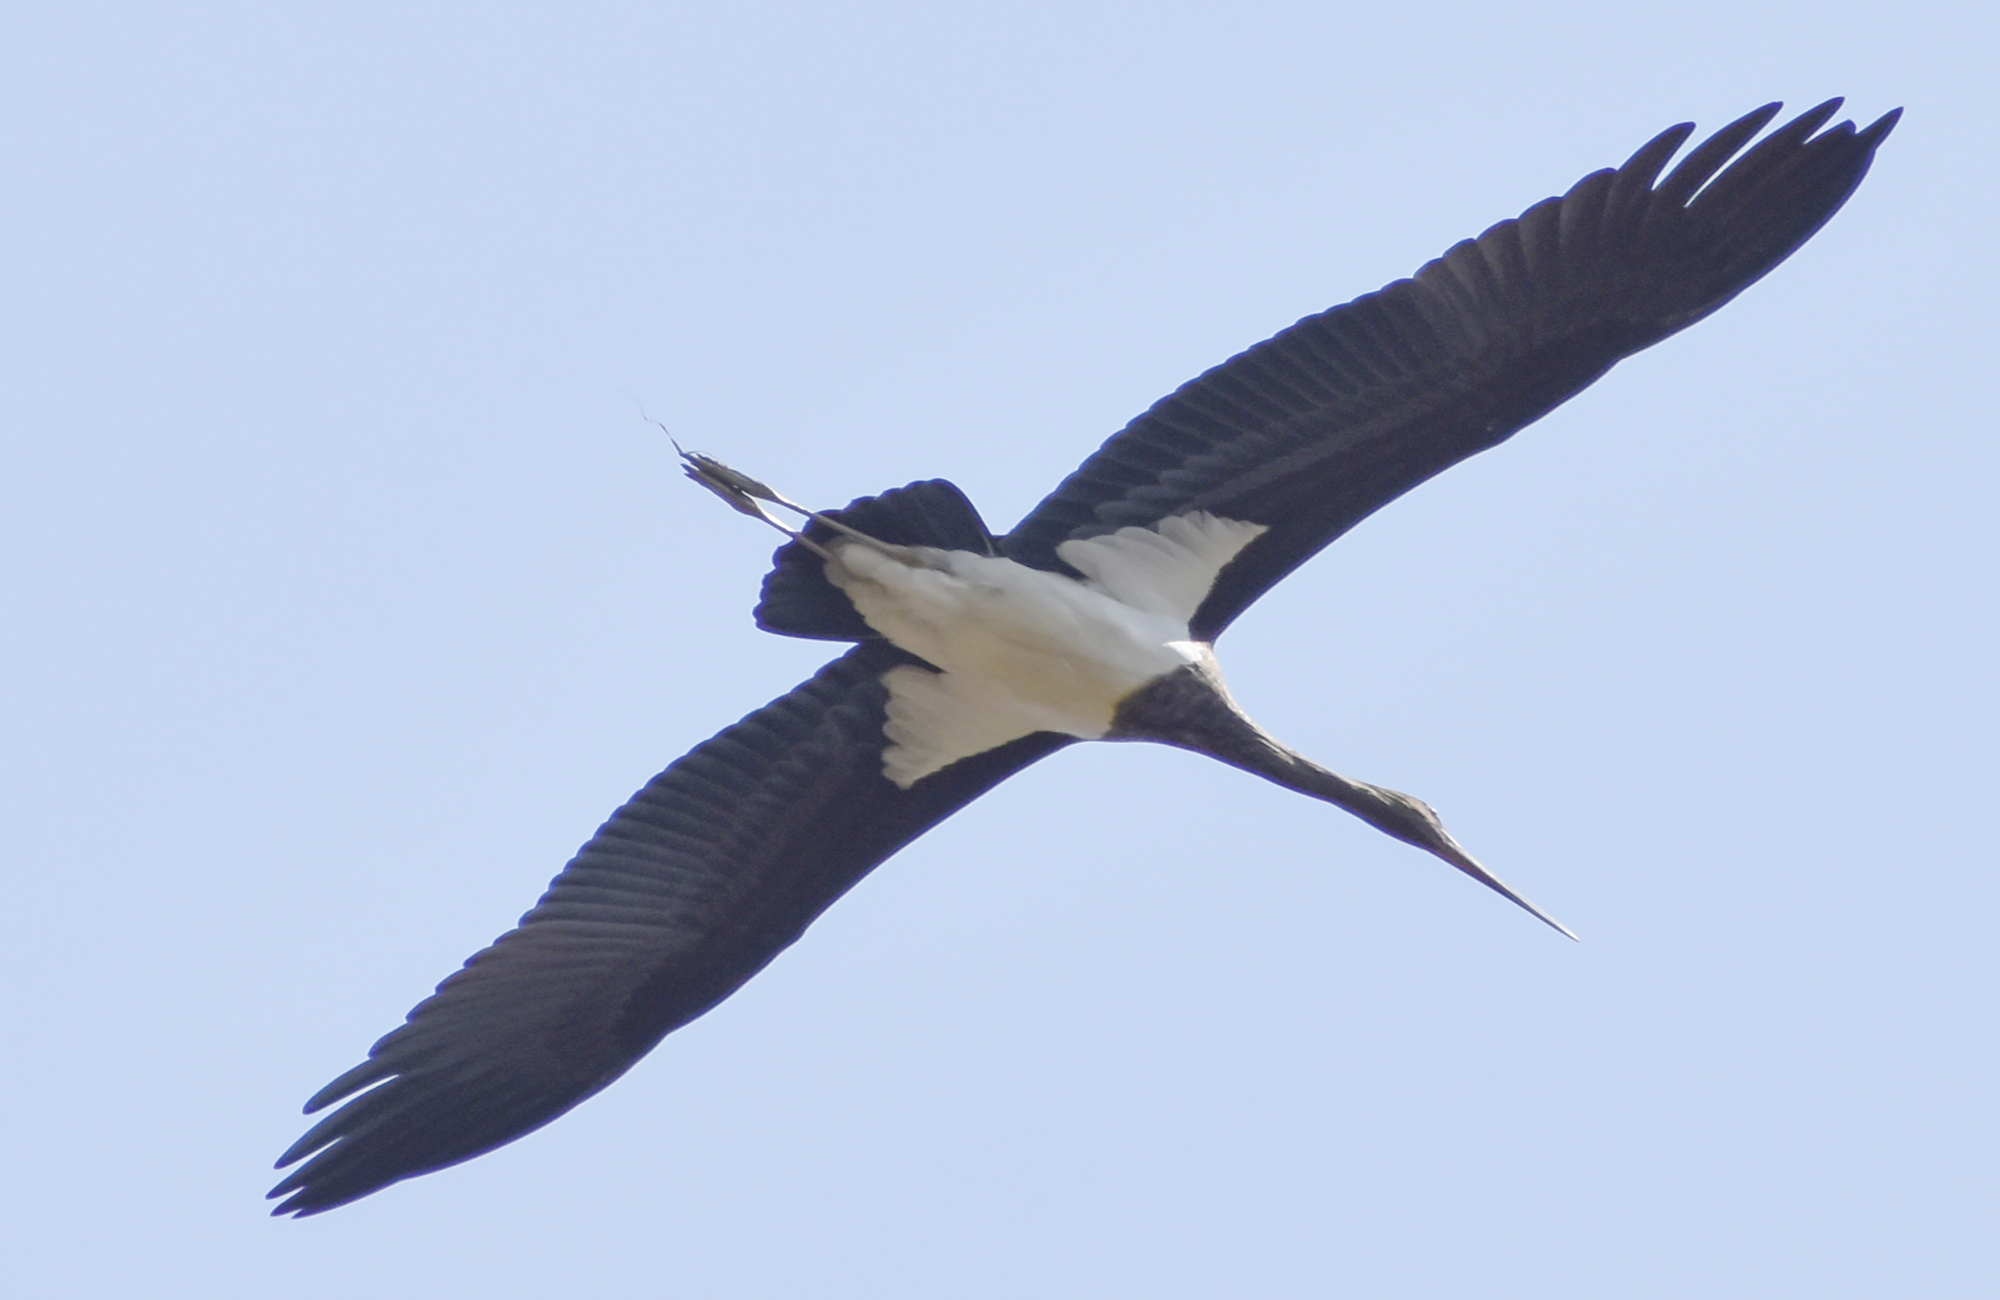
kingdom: Animalia
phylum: Chordata
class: Aves
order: Ciconiiformes
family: Ciconiidae
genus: Ciconia
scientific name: Ciconia nigra
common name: Black stork
